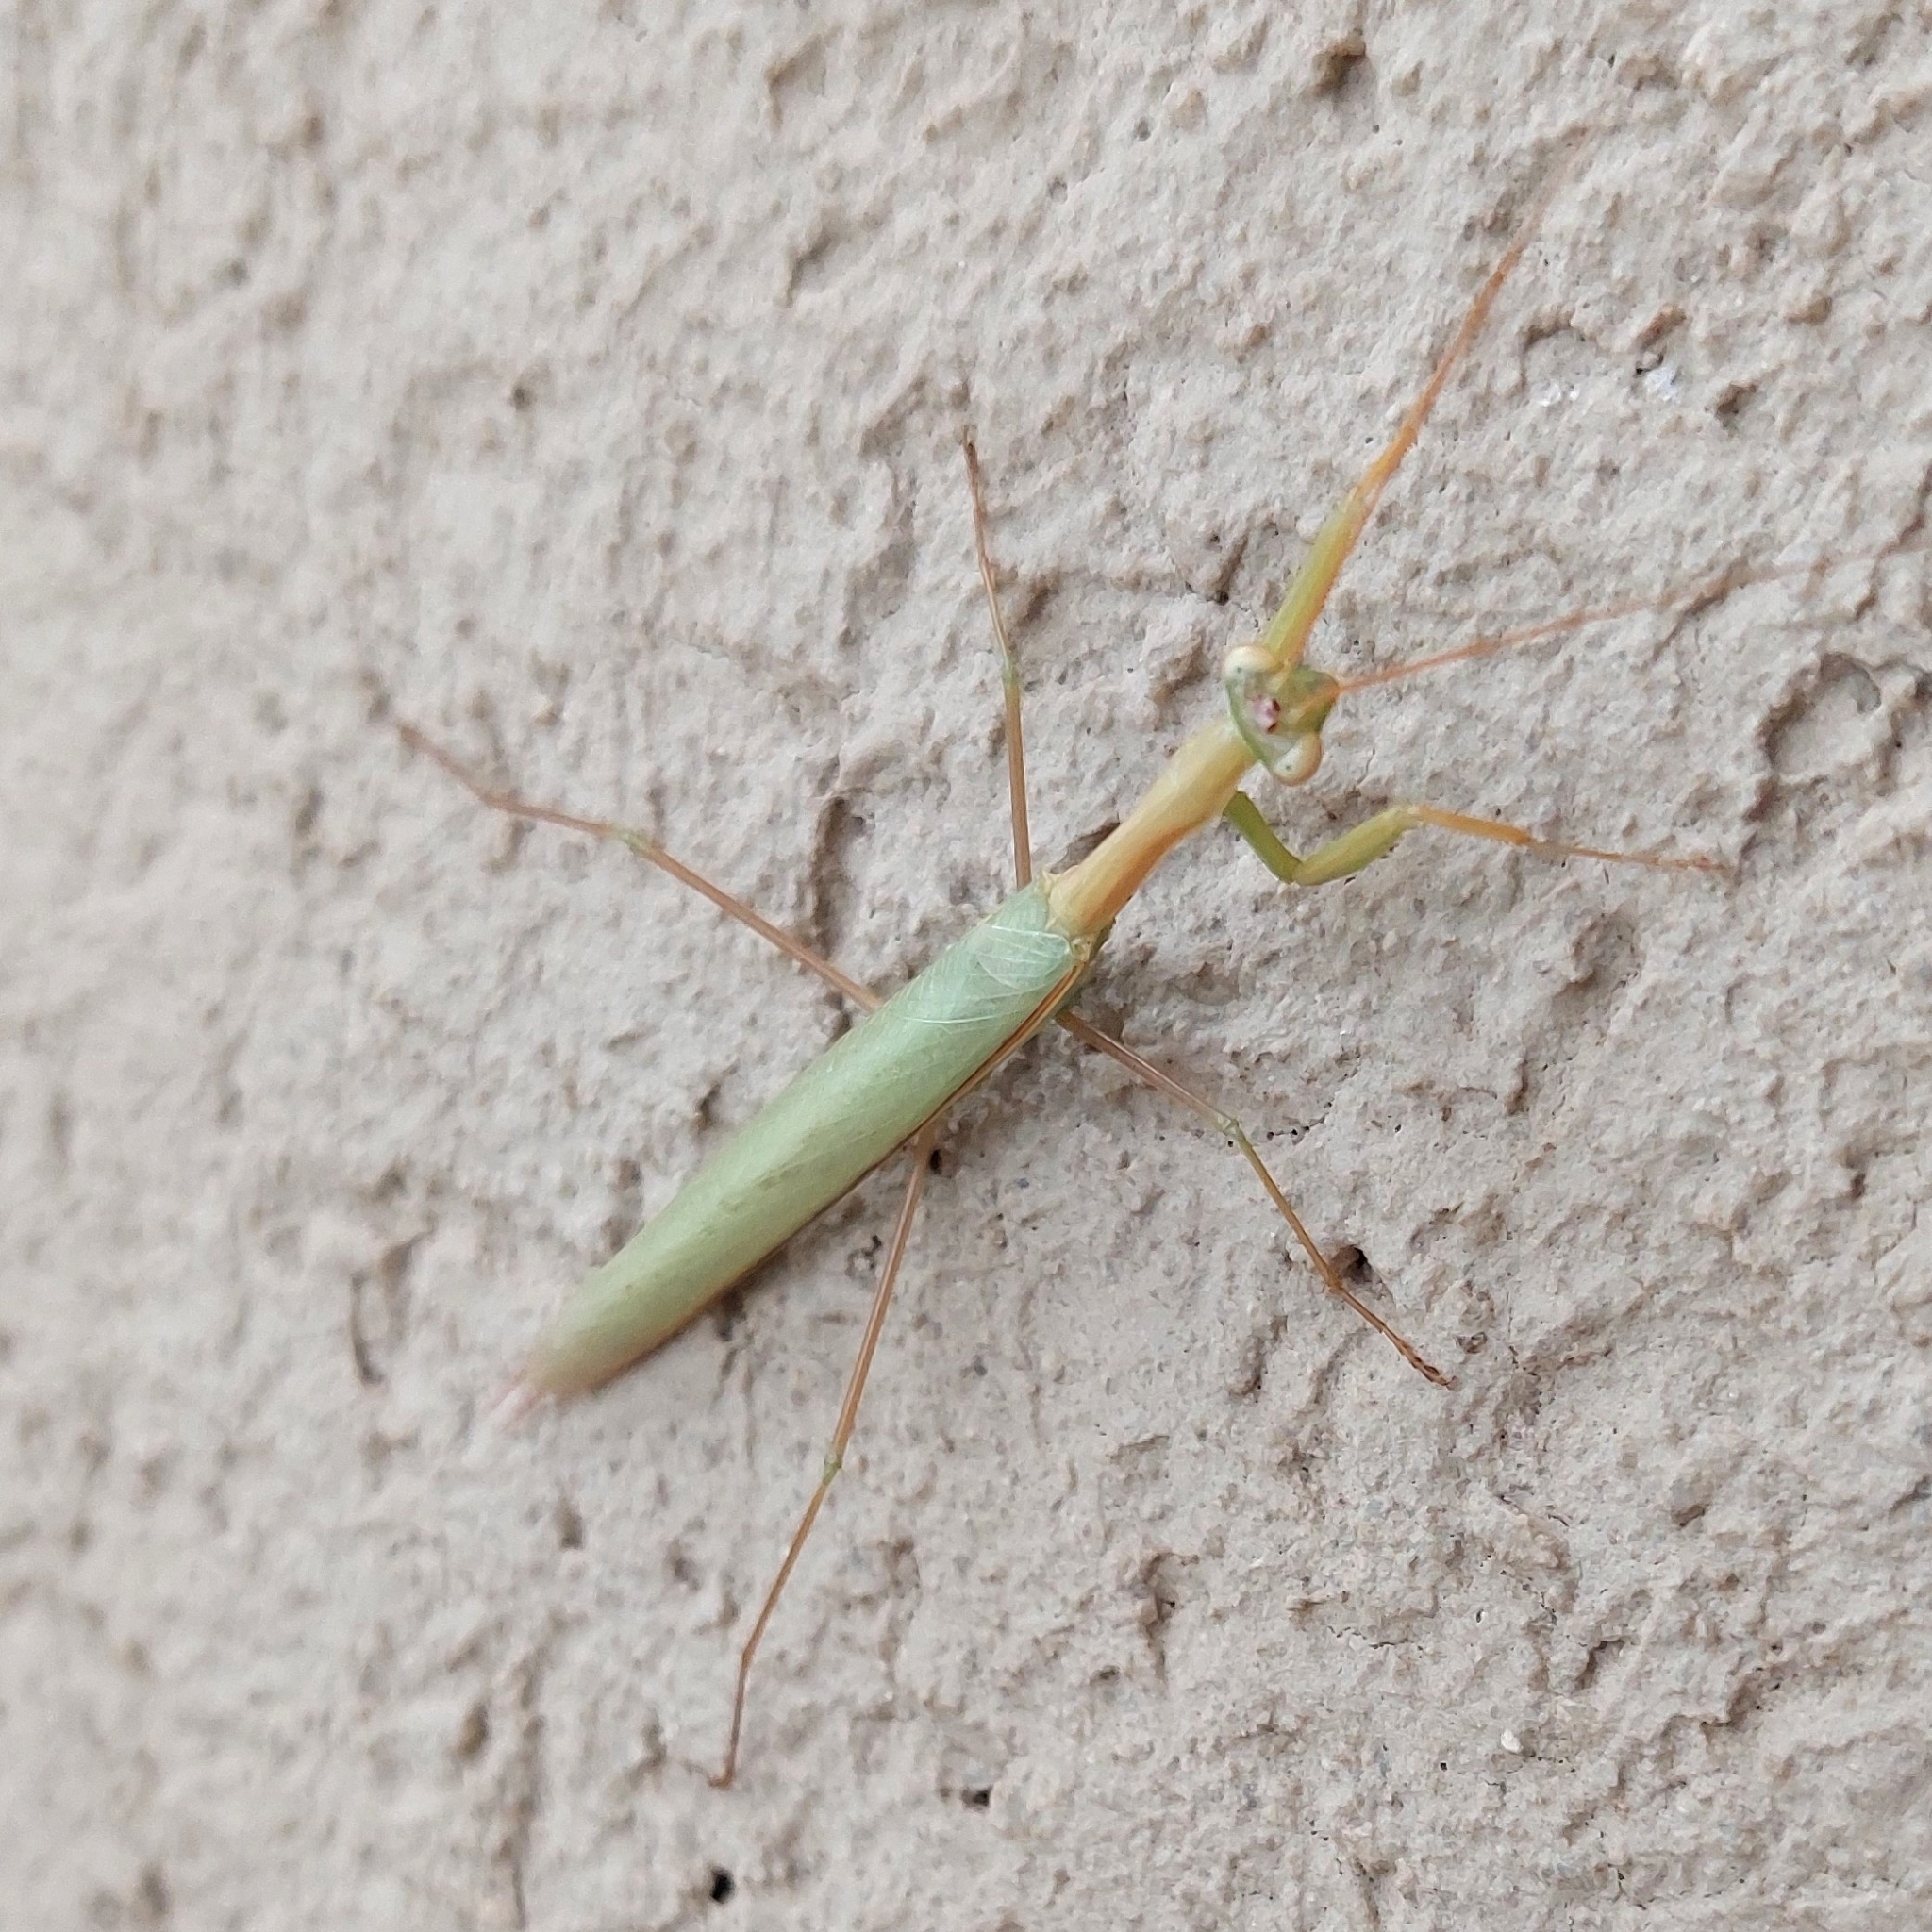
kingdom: Animalia
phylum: Arthropoda
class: Insecta
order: Mantodea
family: Coptopterygidae
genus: Coptopteryx
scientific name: Coptopteryx argentina
